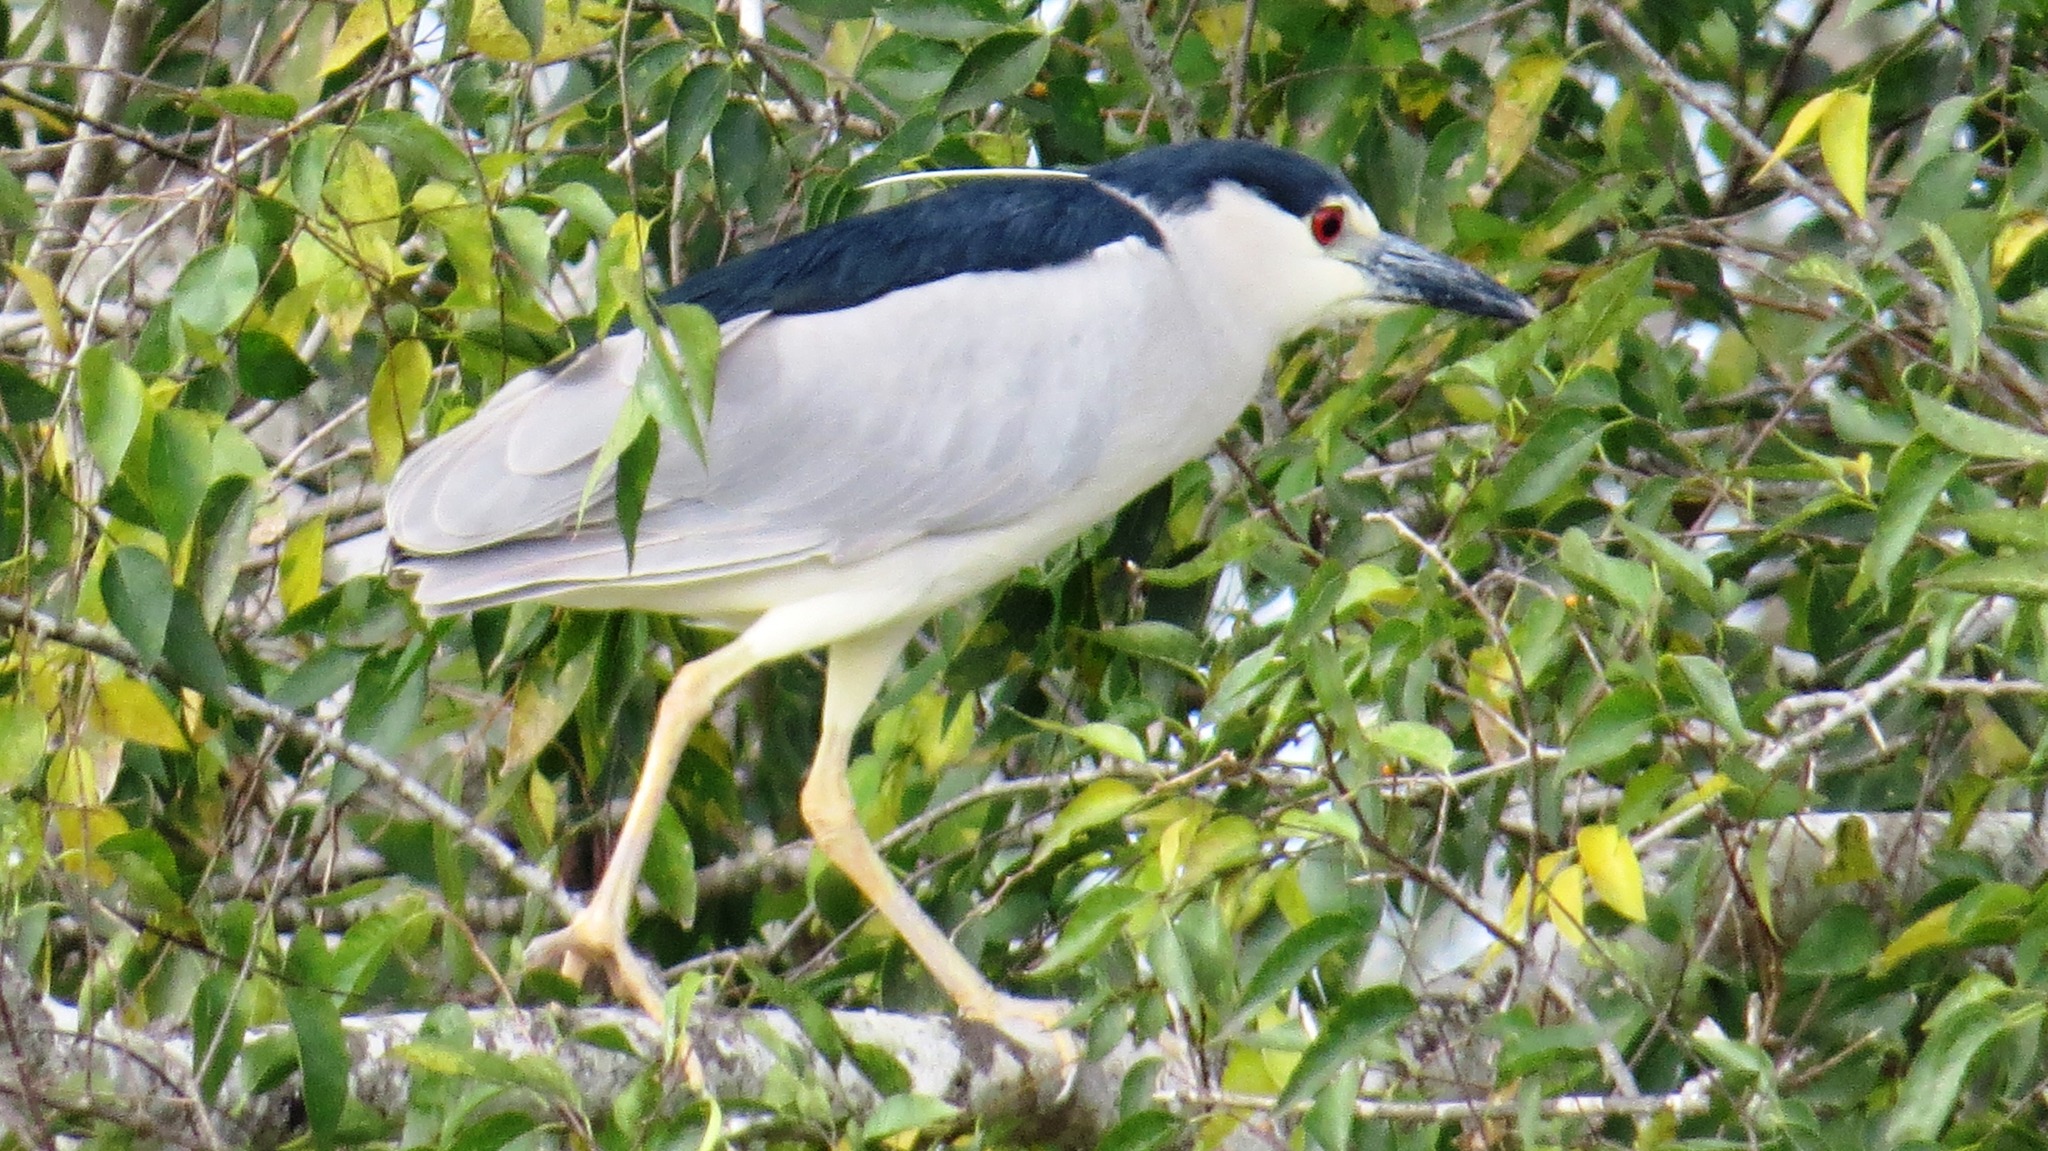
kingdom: Animalia
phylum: Chordata
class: Aves
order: Pelecaniformes
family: Ardeidae
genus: Nycticorax
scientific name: Nycticorax nycticorax
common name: Black-crowned night heron
